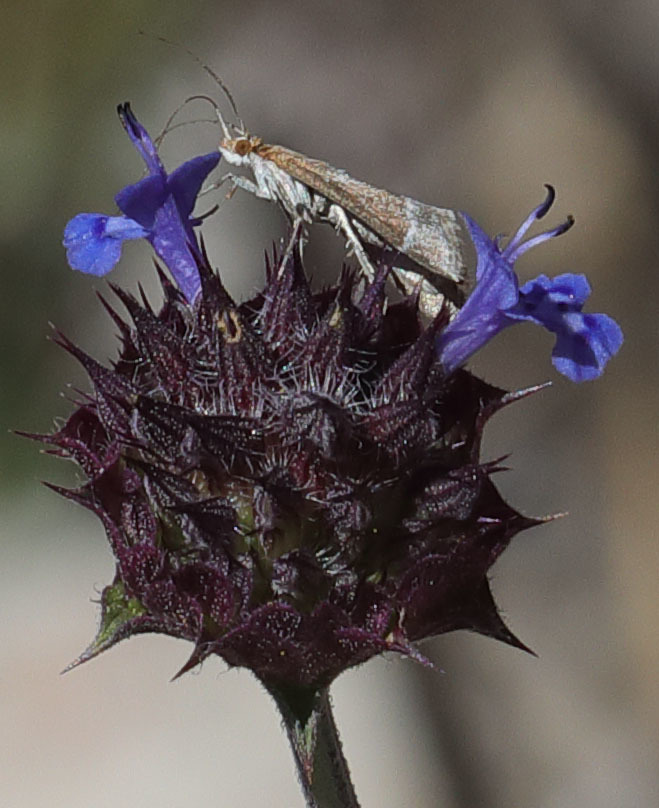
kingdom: Animalia
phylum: Arthropoda
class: Insecta
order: Lepidoptera
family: Crambidae
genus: Pyrausta
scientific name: Pyrausta lethalis
